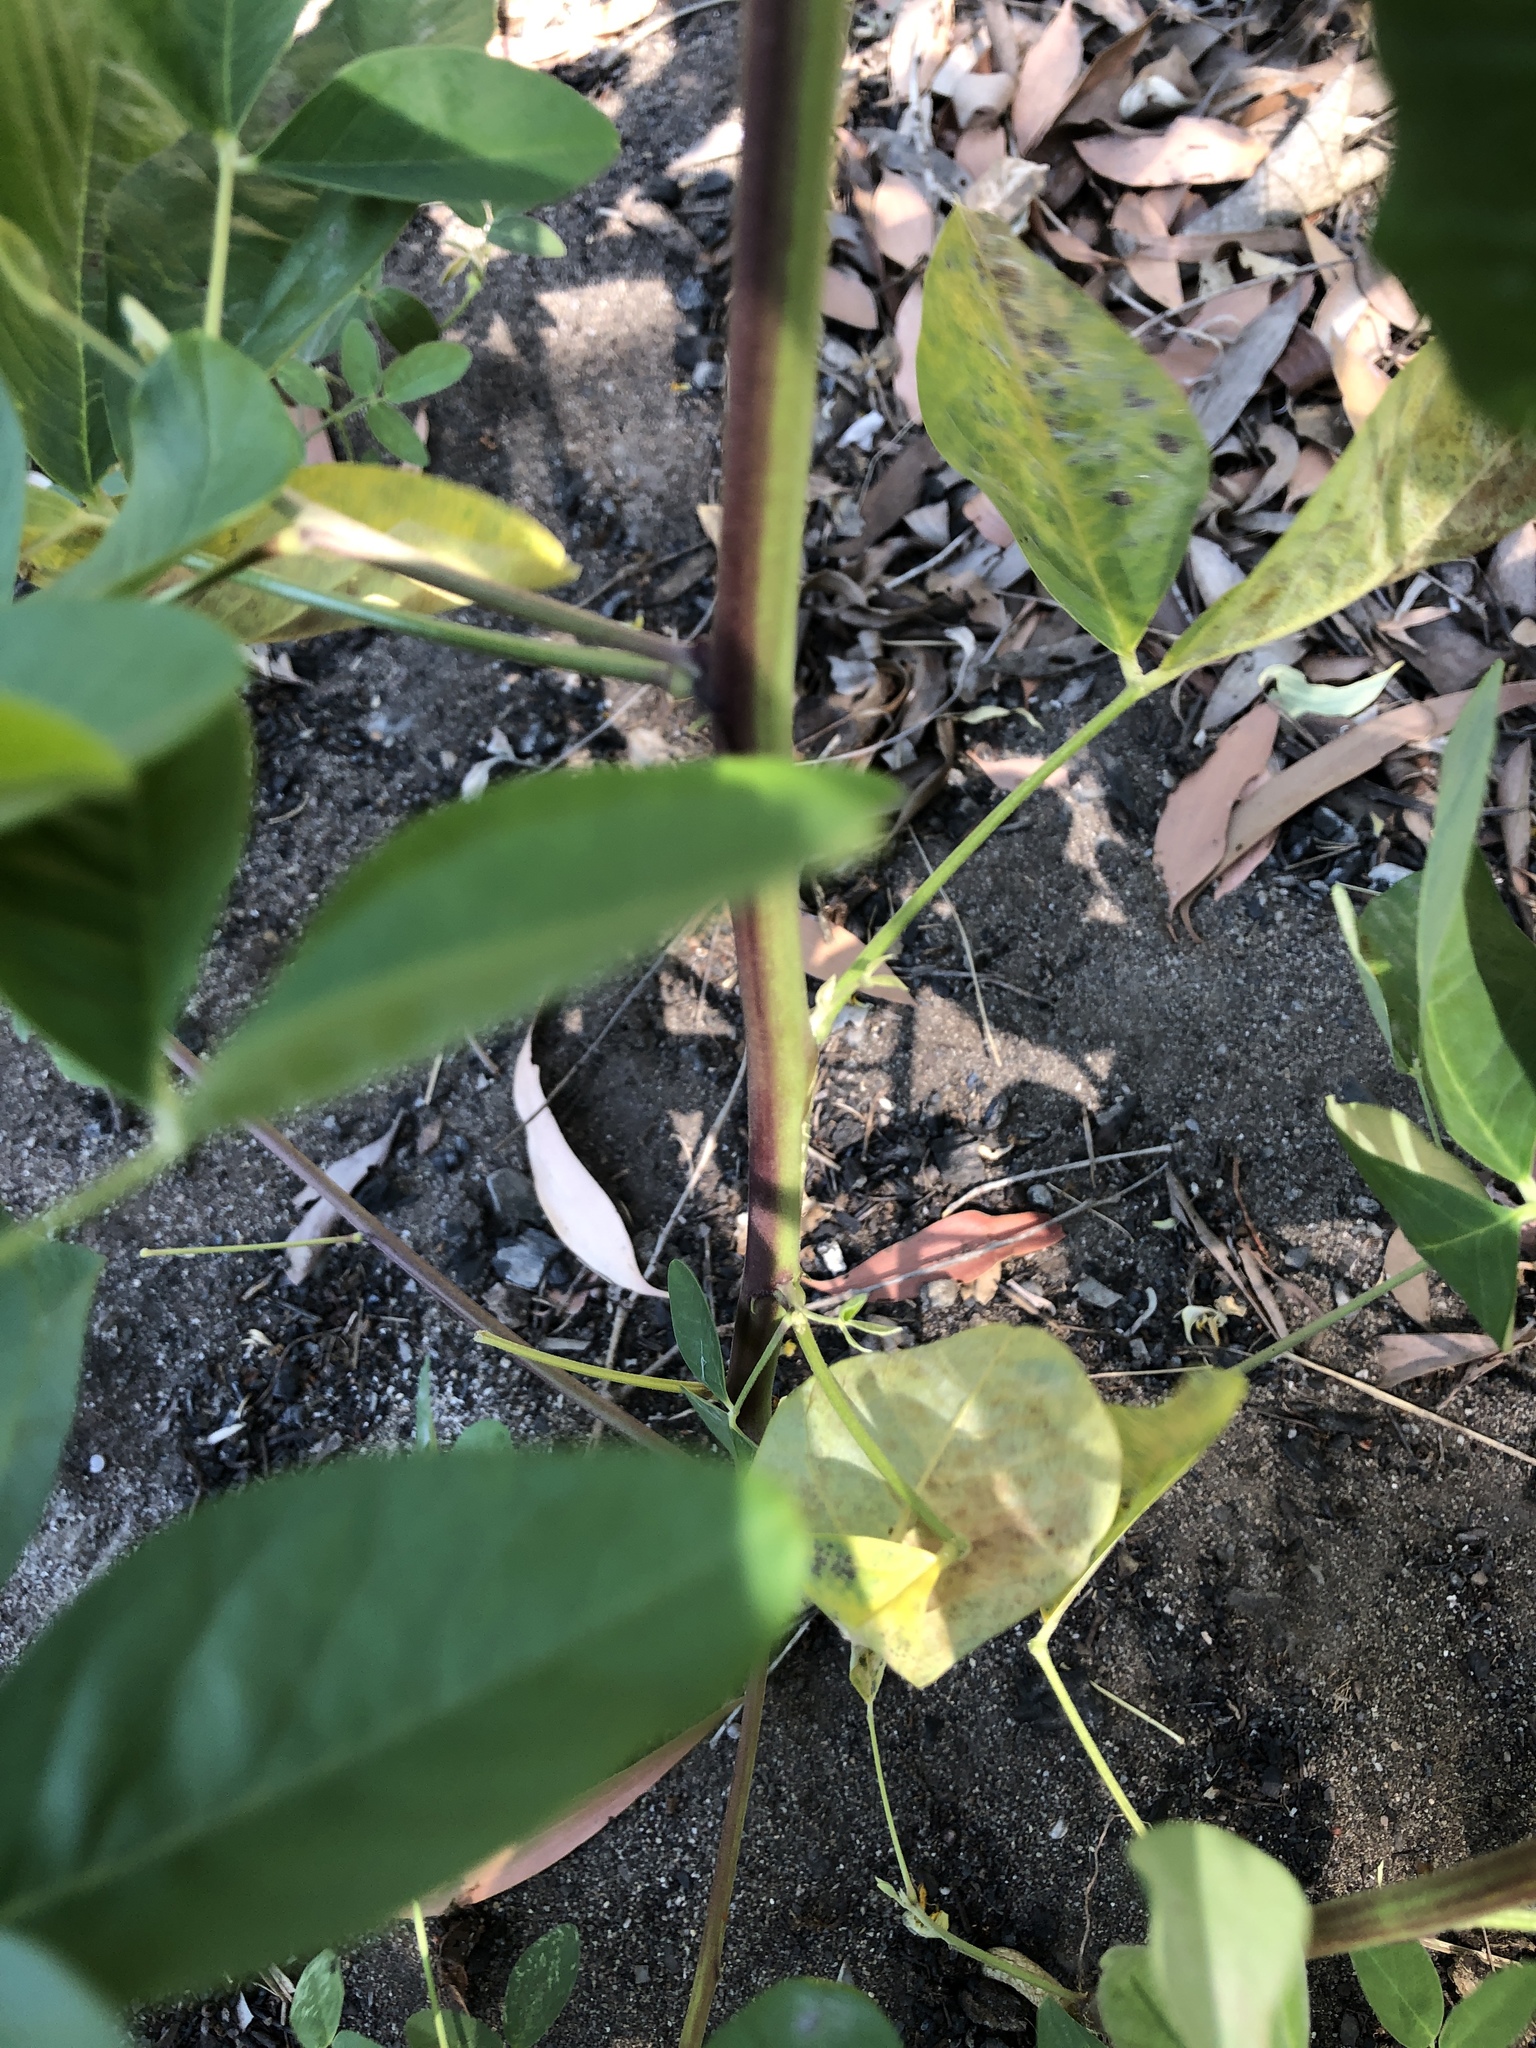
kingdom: Plantae
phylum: Tracheophyta
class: Magnoliopsida
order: Fabales
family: Fabaceae
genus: Crotalaria
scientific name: Crotalaria pallida
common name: Smooth rattlebox
